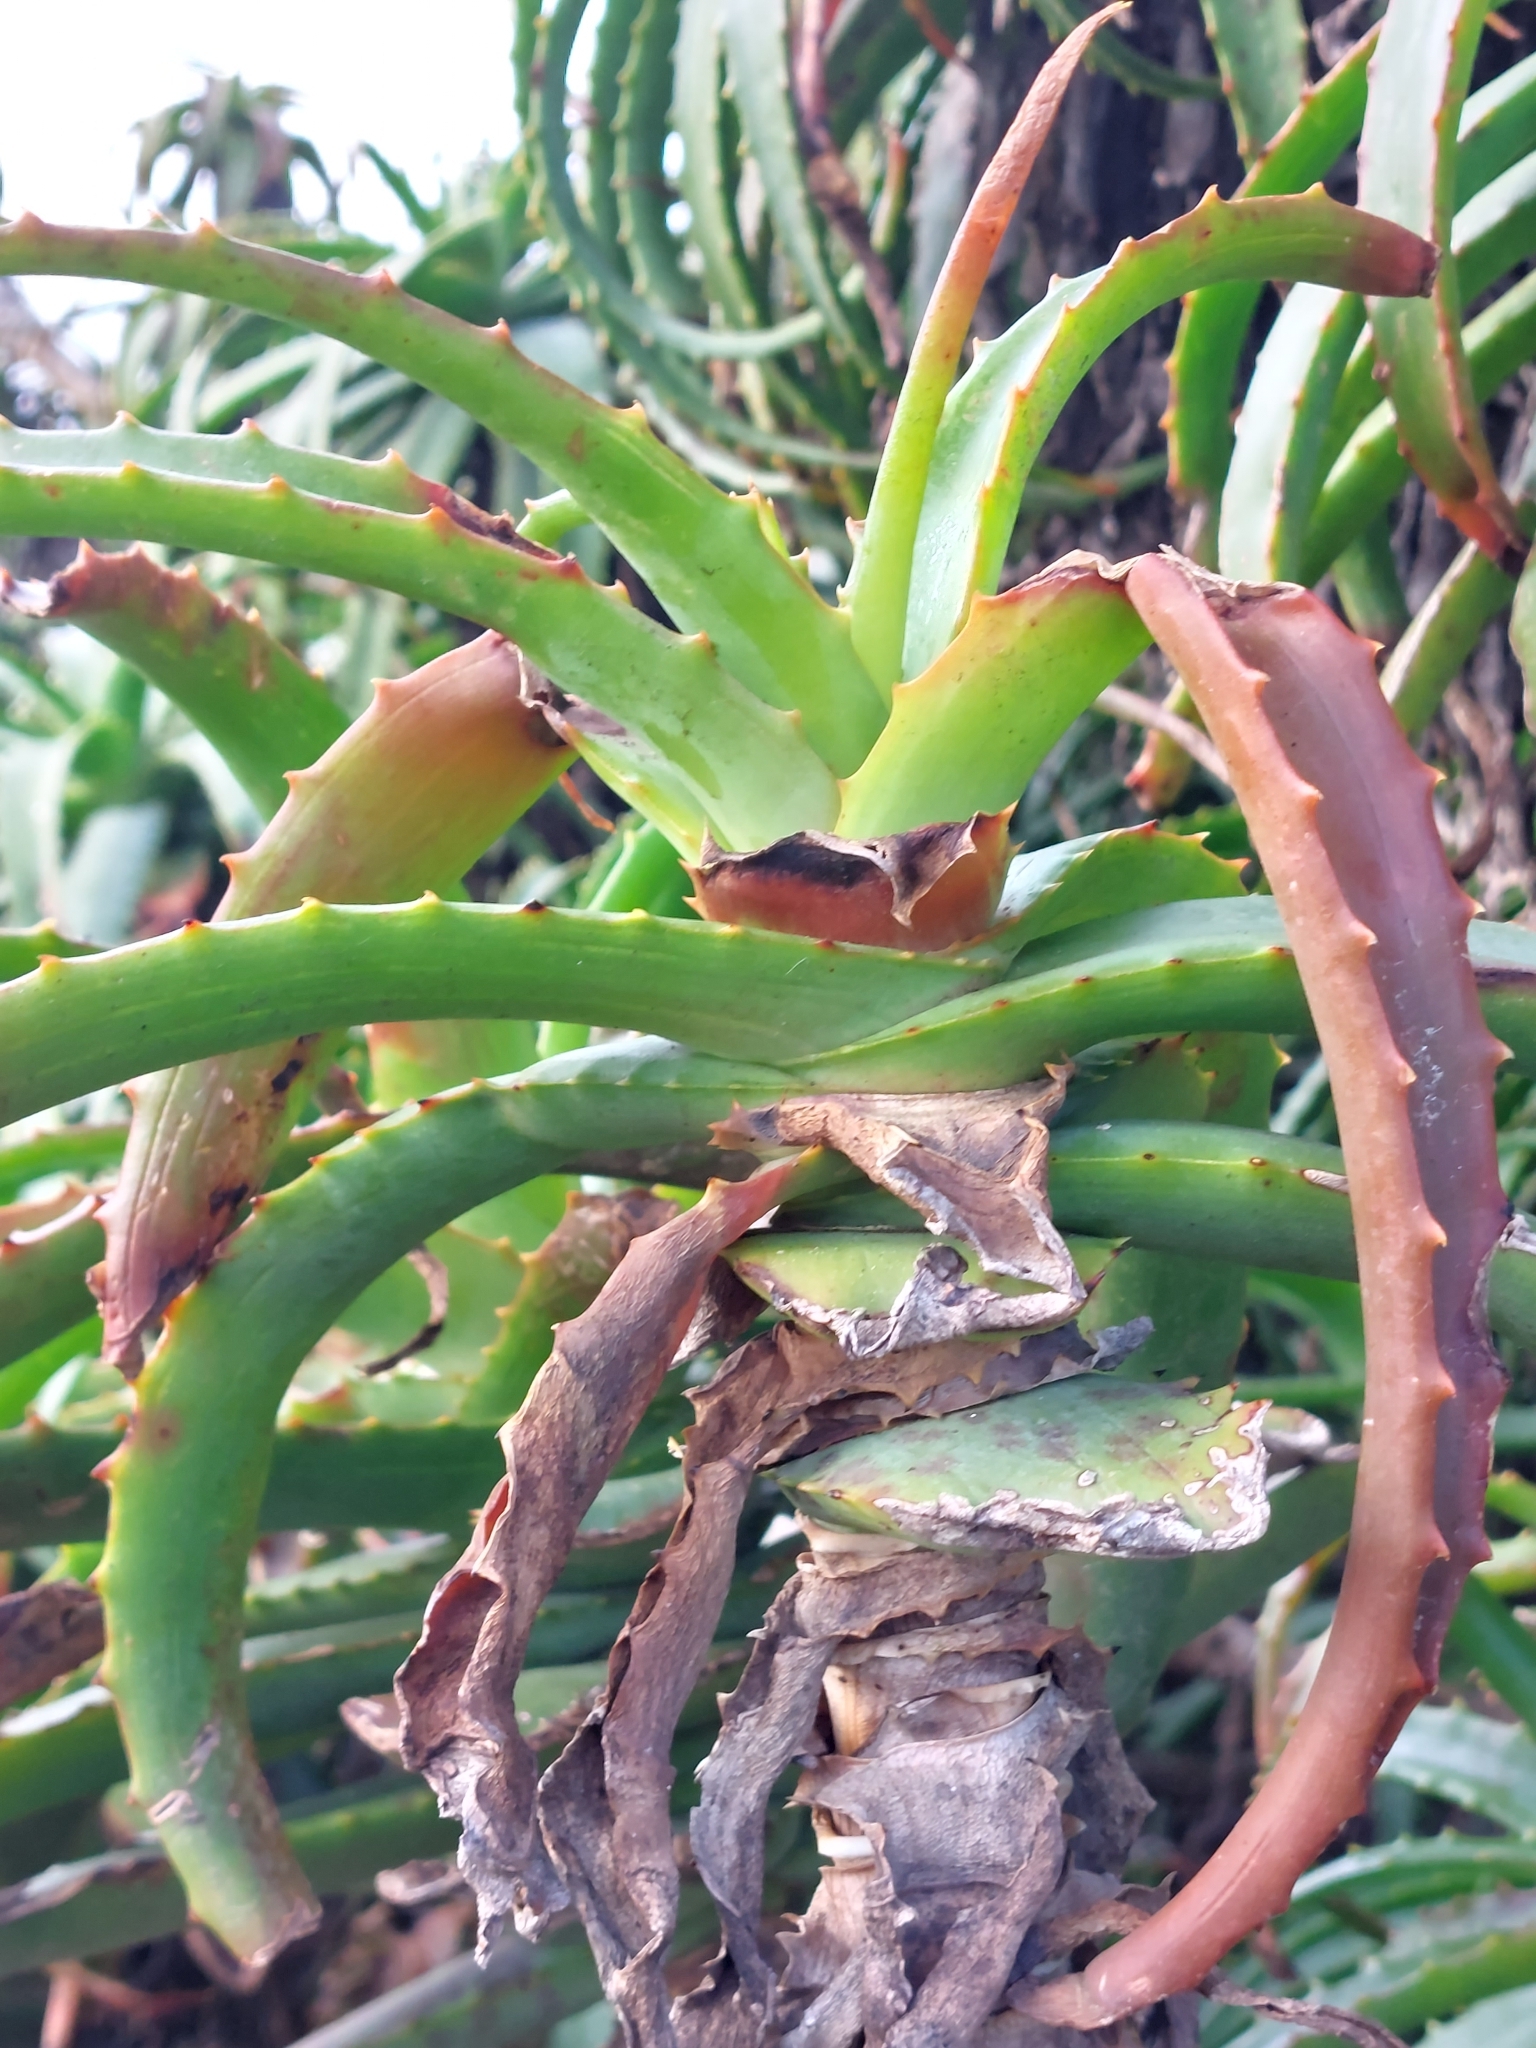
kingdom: Plantae
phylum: Tracheophyta
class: Liliopsida
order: Asparagales
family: Asphodelaceae
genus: Aloe
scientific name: Aloe arborescens
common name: Candelabra aloe
